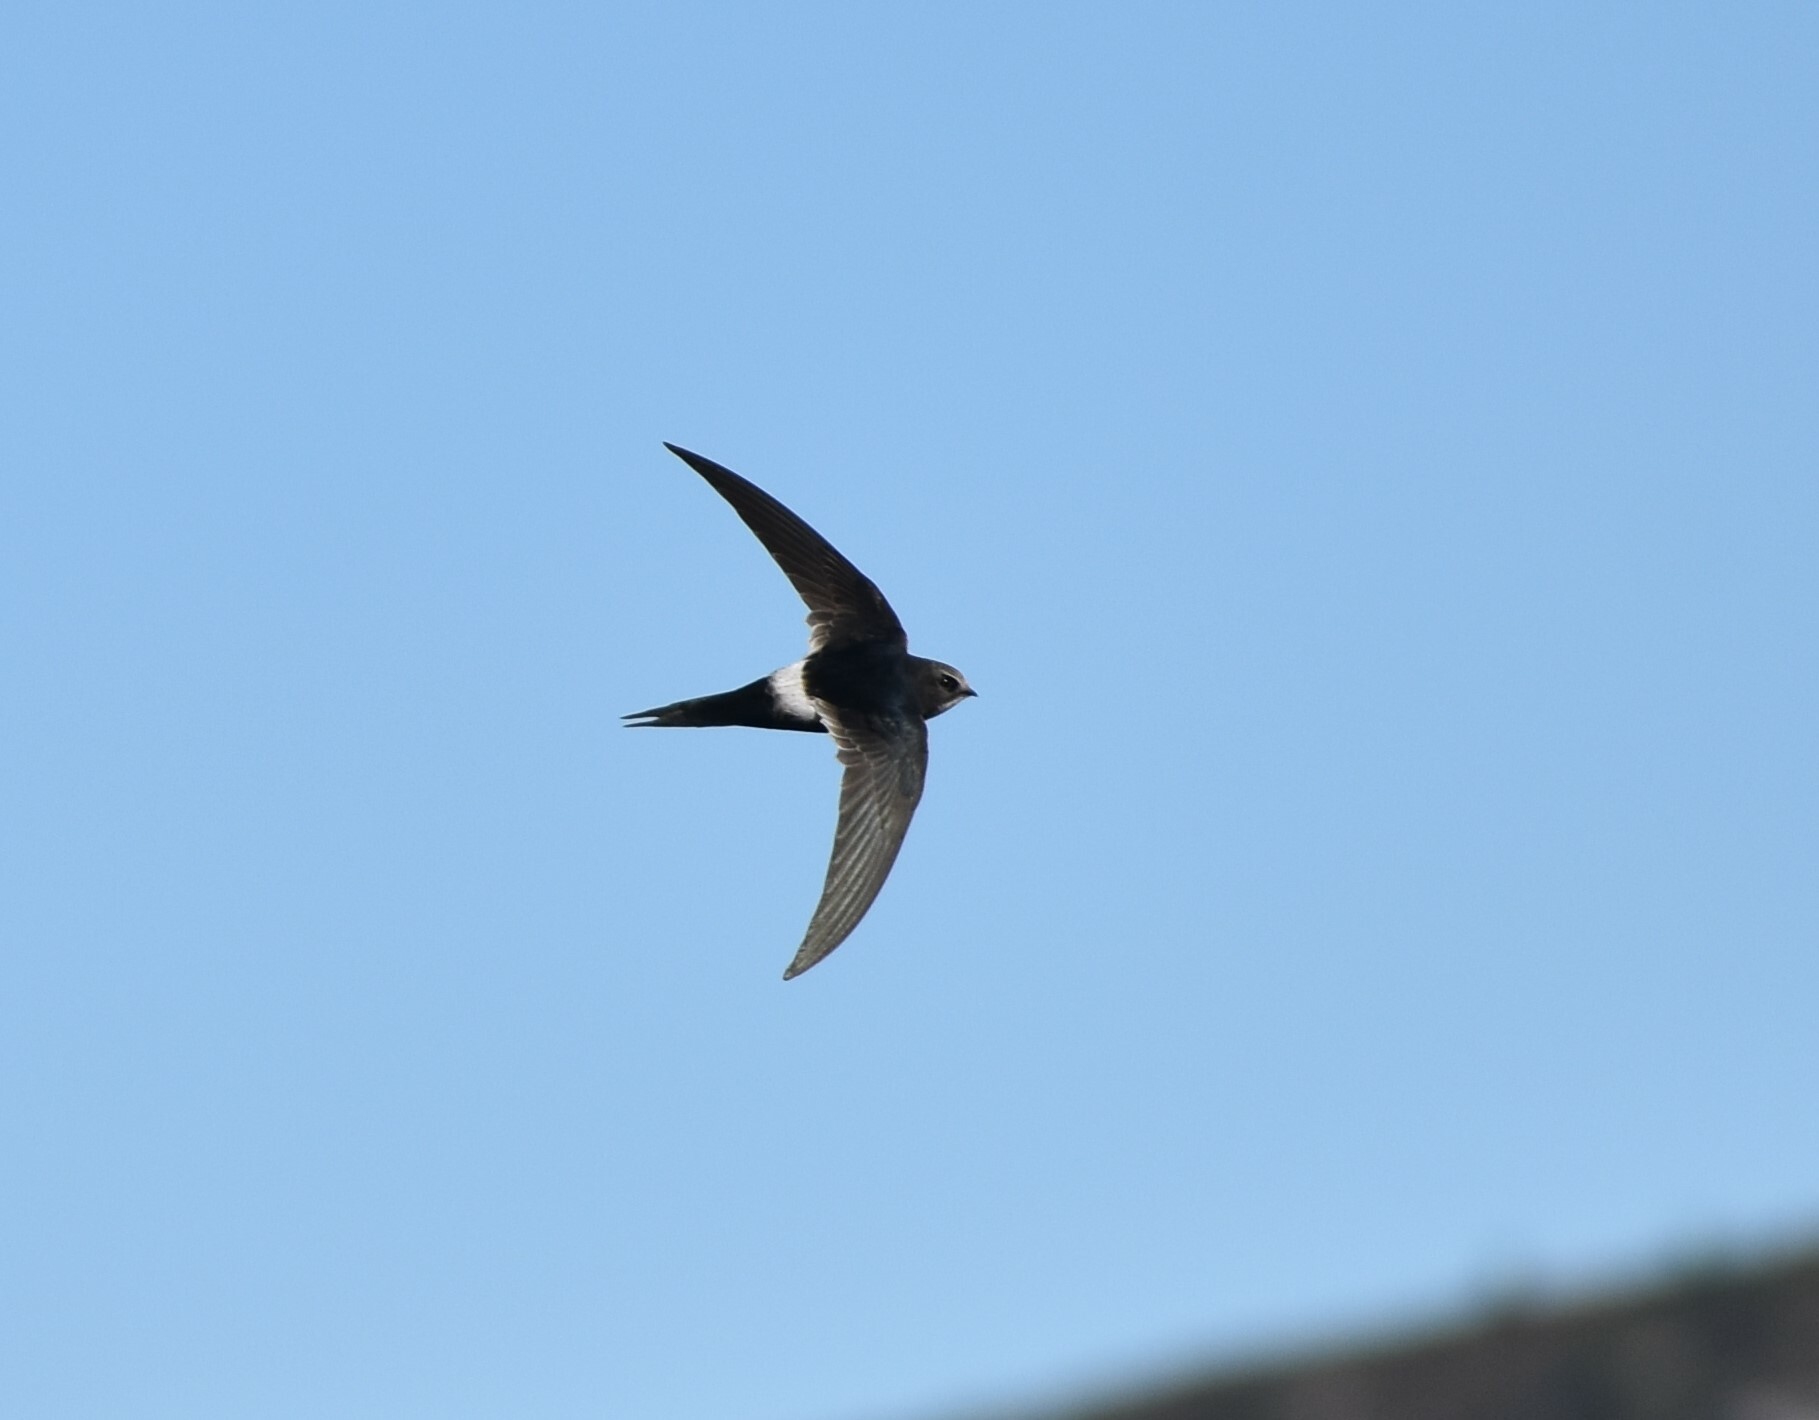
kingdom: Animalia
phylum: Chordata
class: Aves
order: Apodiformes
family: Apodidae
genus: Apus
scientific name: Apus caffer
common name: White-rumped swift
